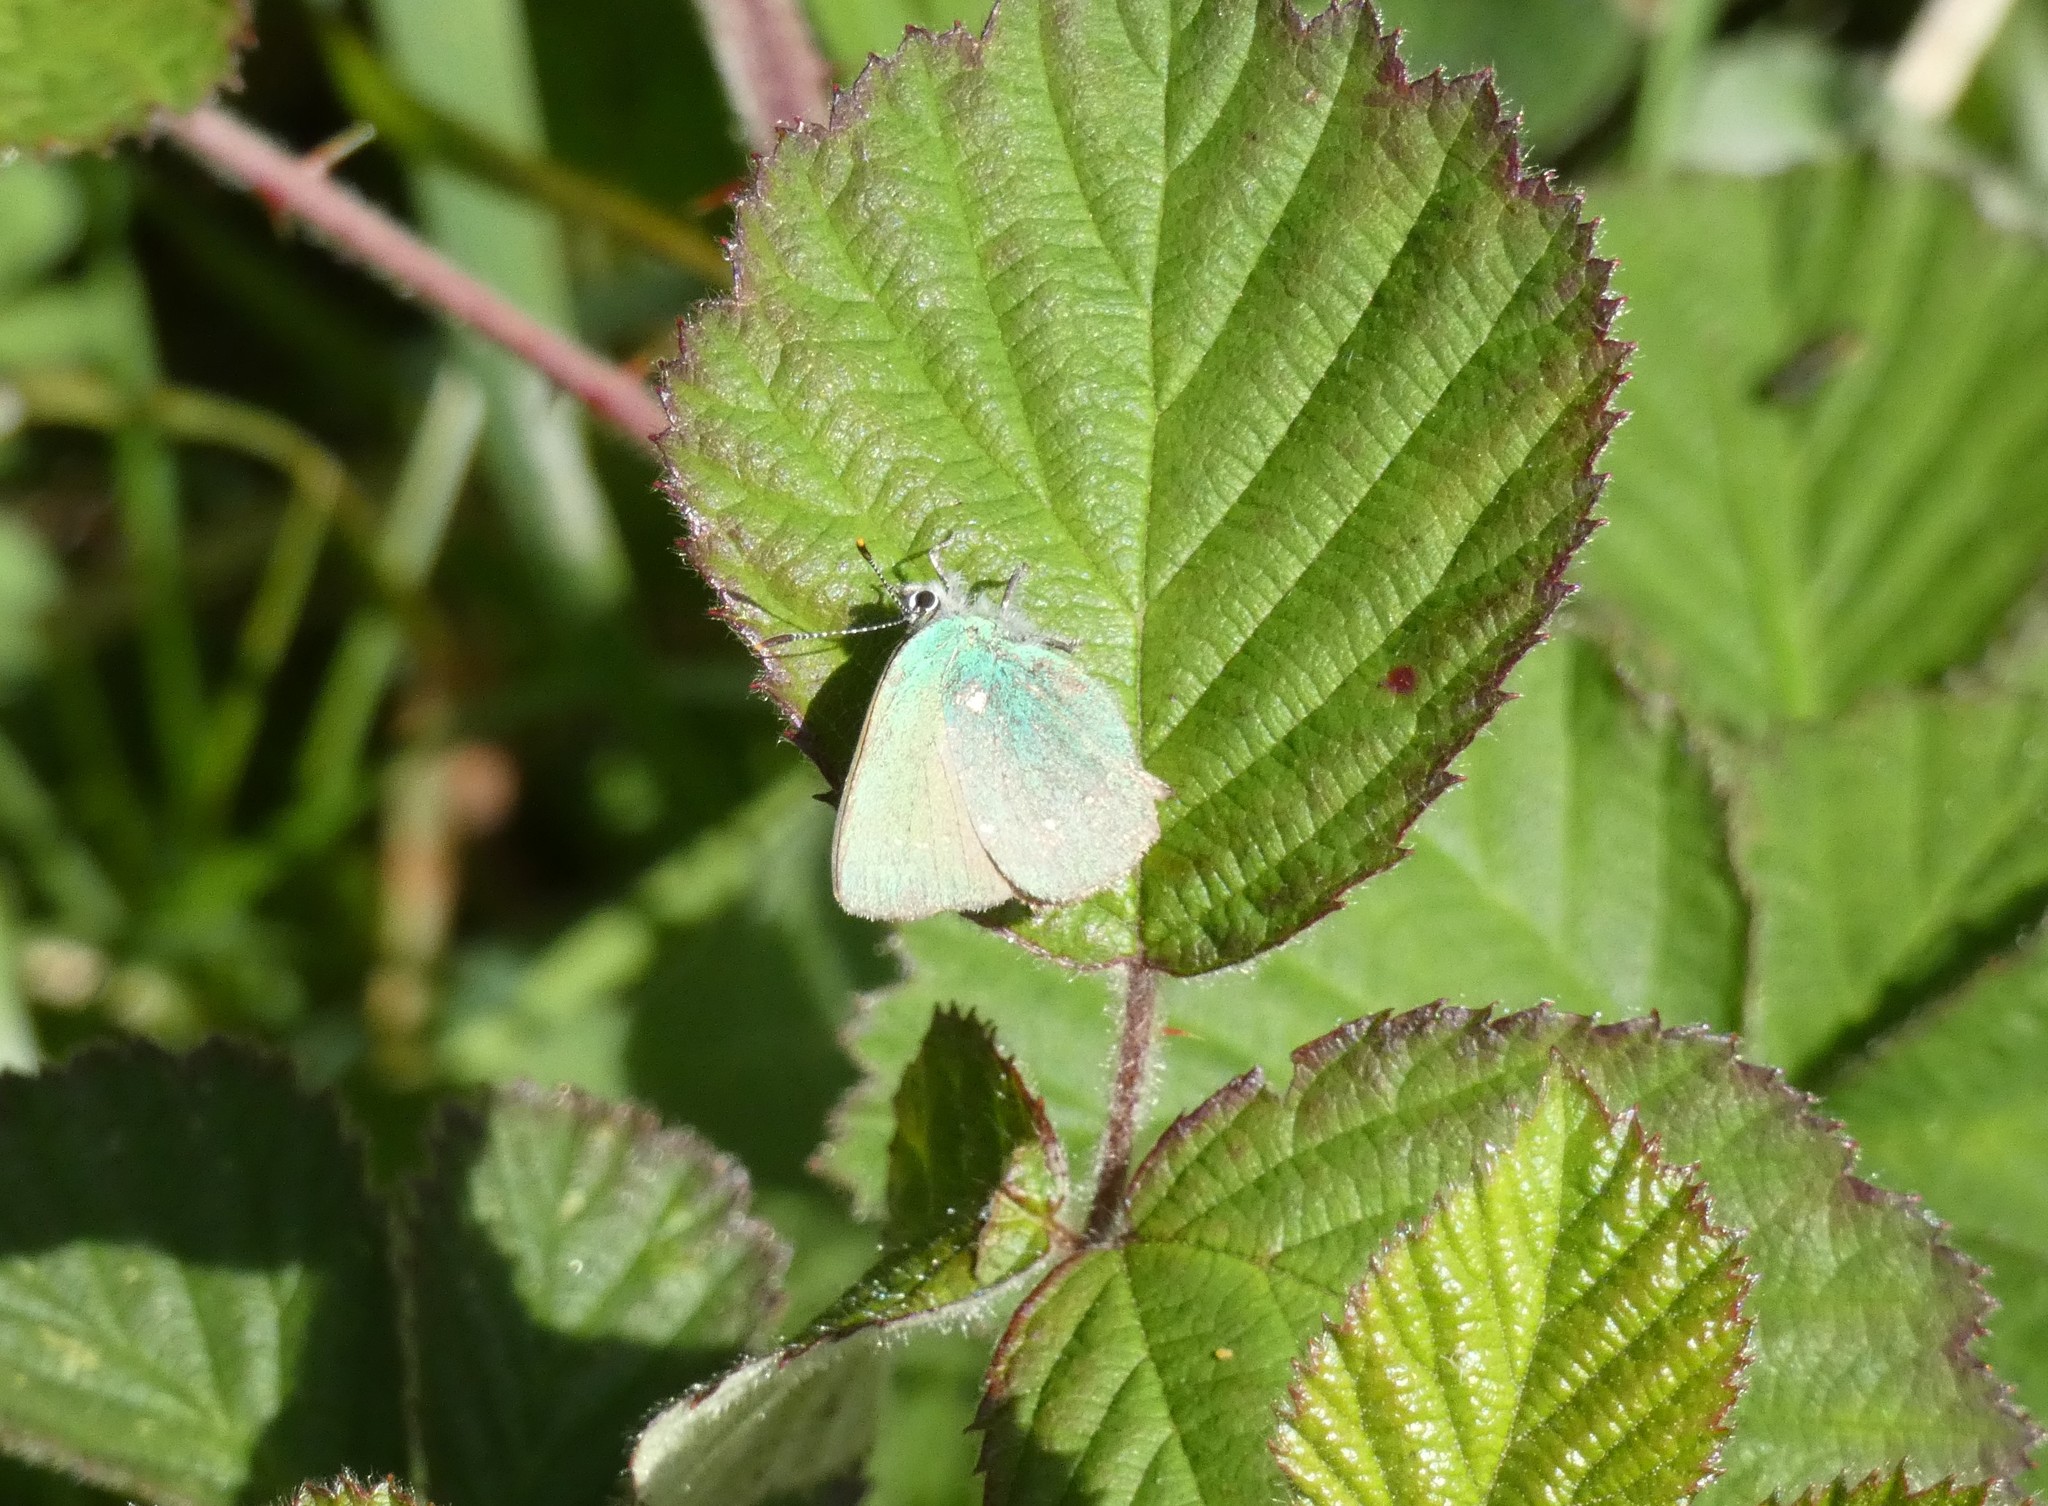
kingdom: Animalia
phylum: Arthropoda
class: Insecta
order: Lepidoptera
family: Lycaenidae
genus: Callophrys
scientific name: Callophrys rubi
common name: Green hairstreak
